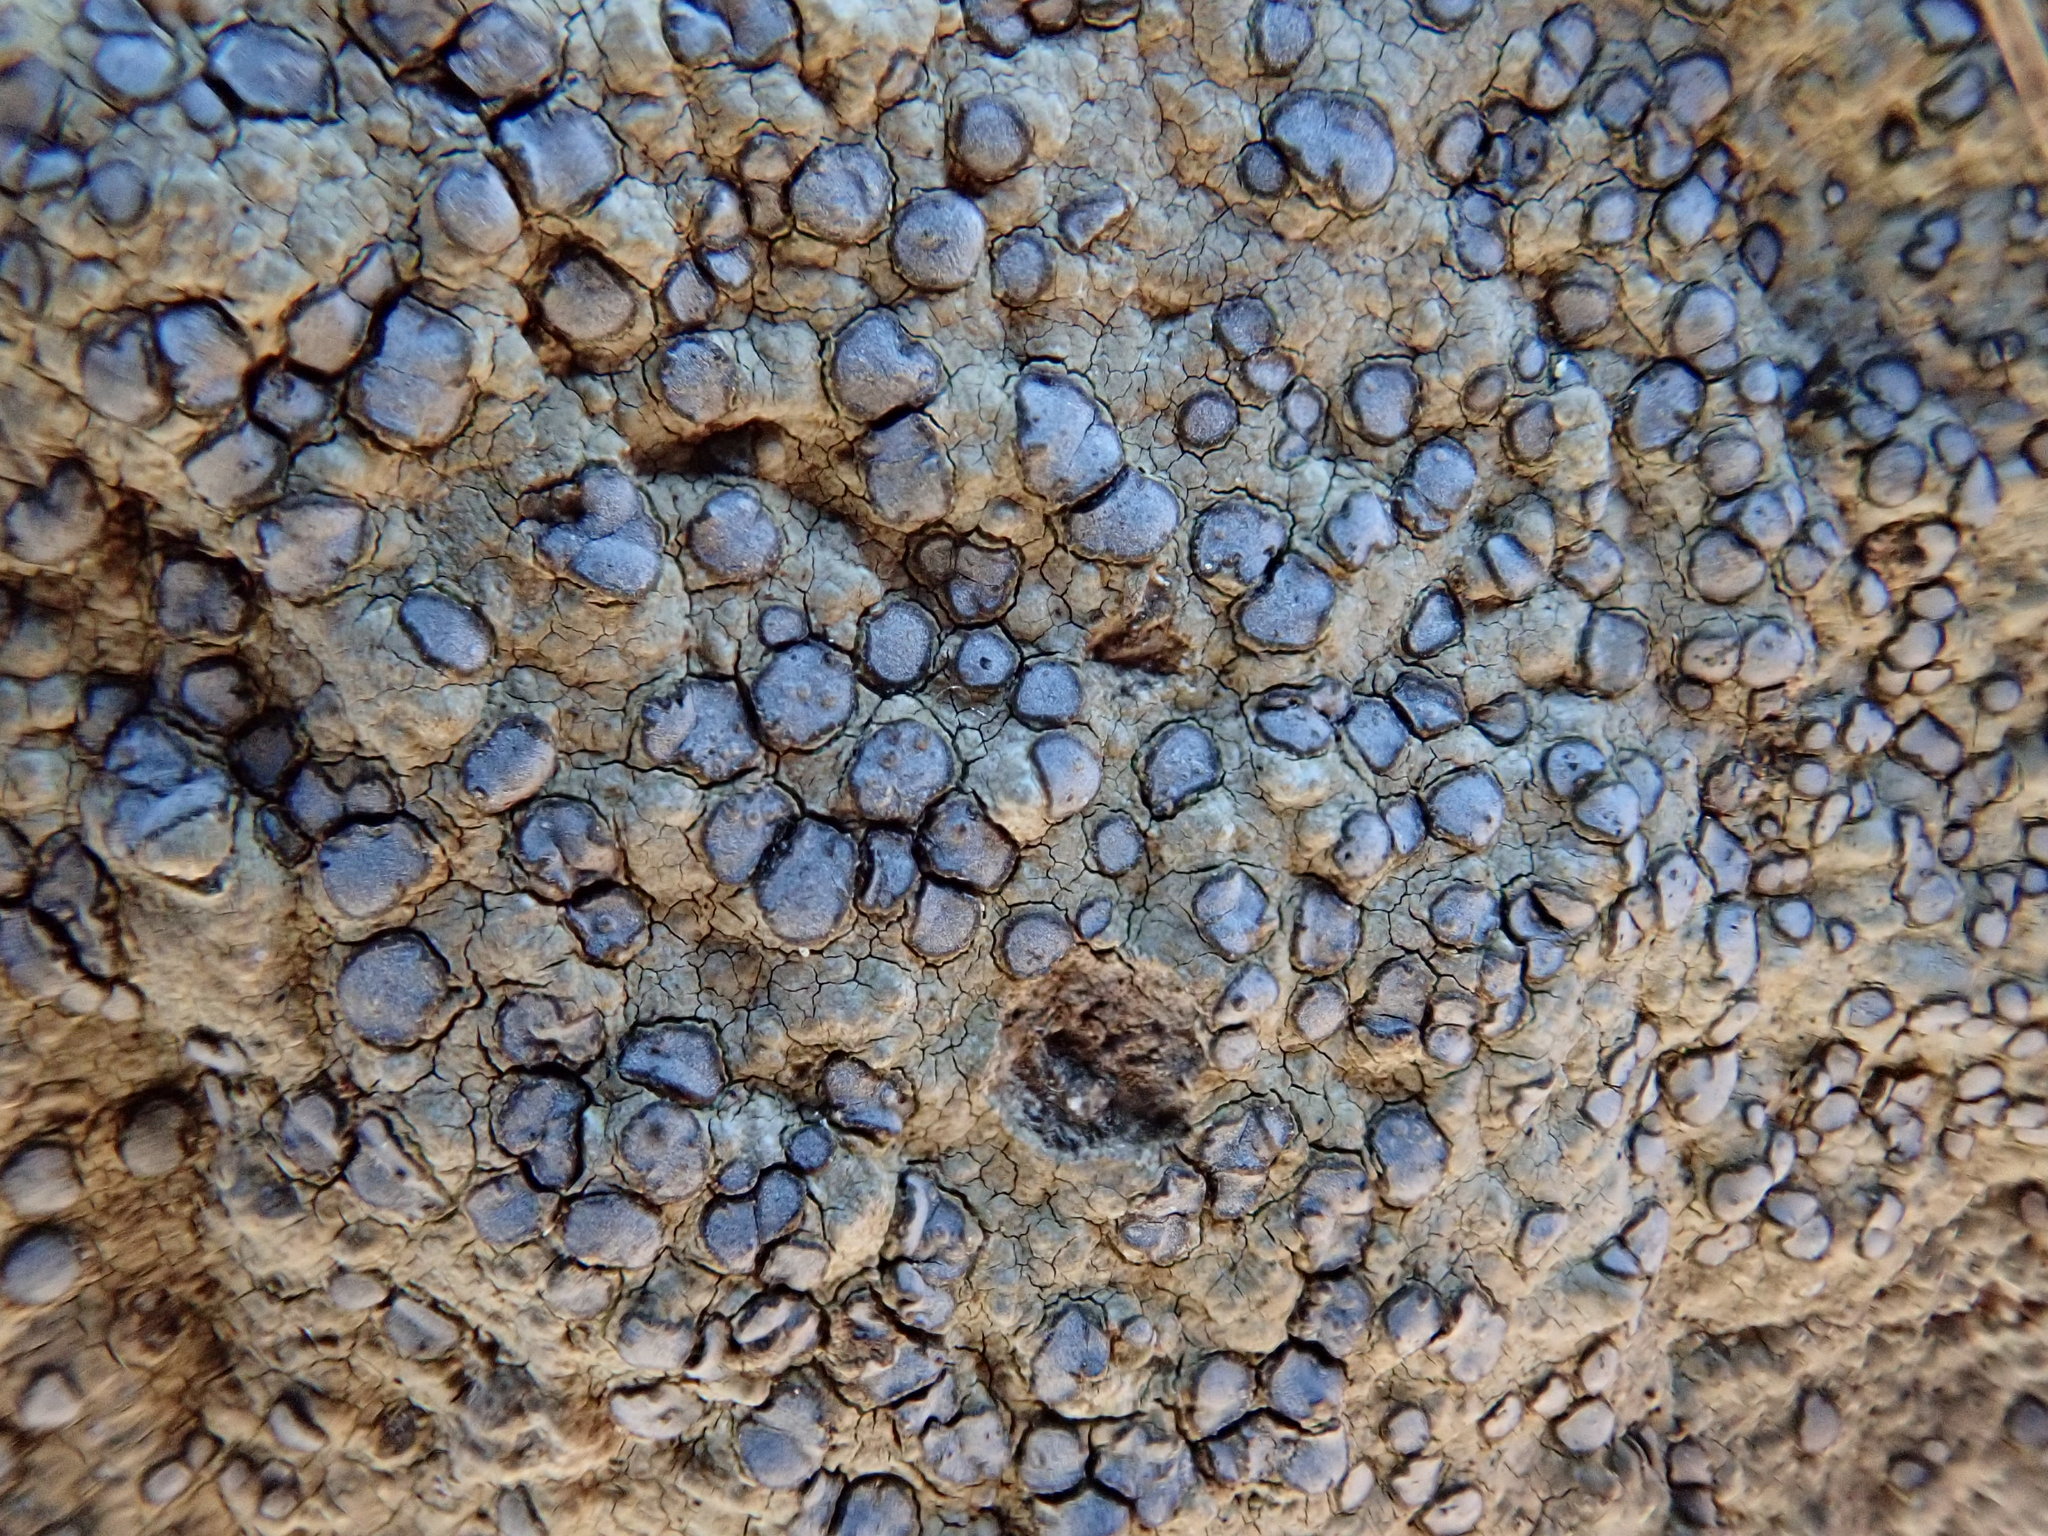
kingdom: Fungi
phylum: Ascomycota
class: Lecanoromycetes
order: Lecideales
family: Lecideaceae
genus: Porpidia
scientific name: Porpidia albocaerulescens
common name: Smokey-eyed boulder lichen
